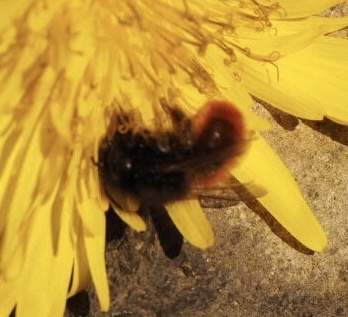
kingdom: Animalia
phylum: Arthropoda
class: Insecta
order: Hymenoptera
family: Megachilidae
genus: Osmia
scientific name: Osmia cornuta
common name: Mason bee
